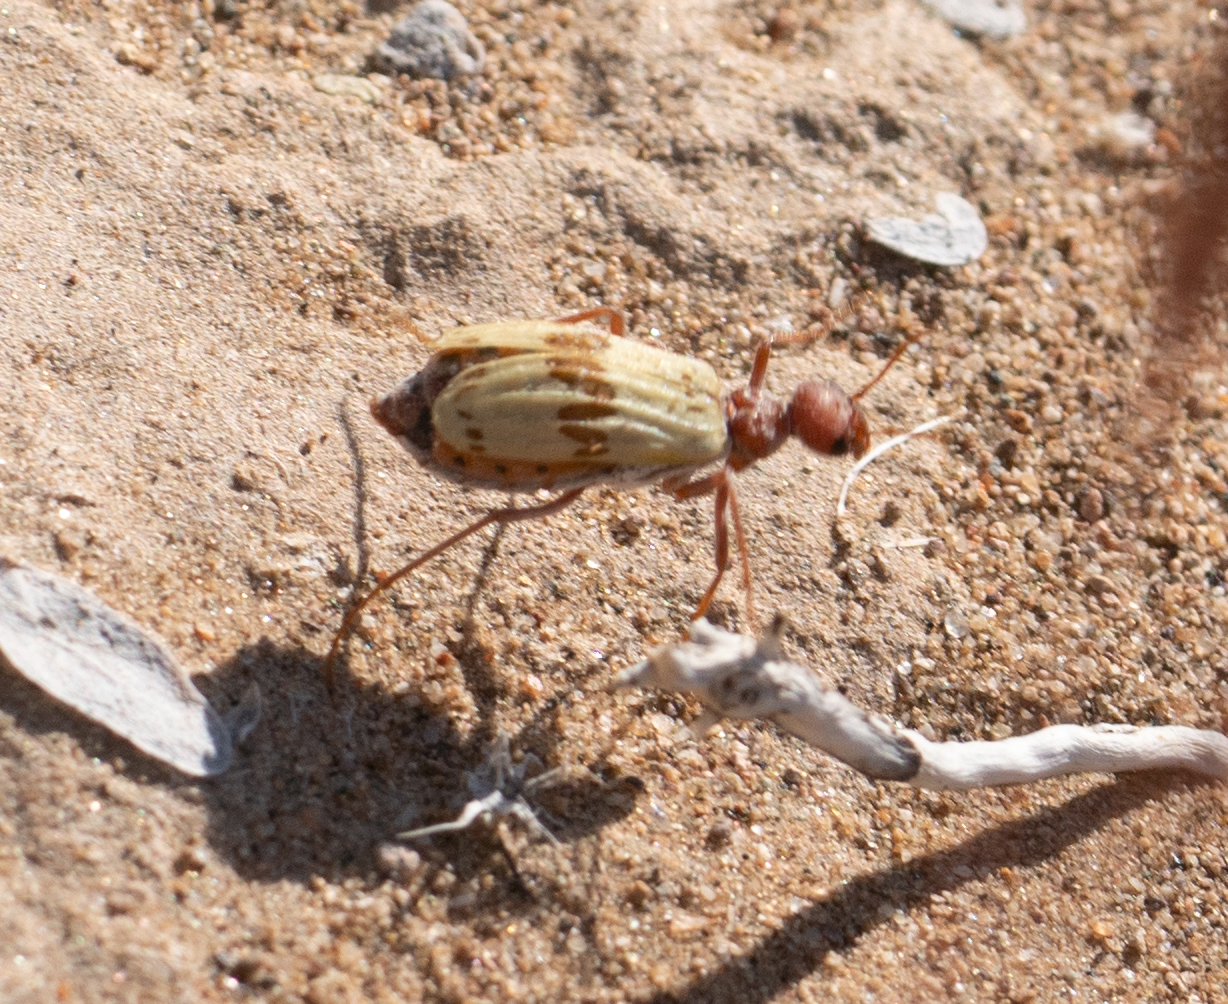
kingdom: Animalia
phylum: Arthropoda
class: Insecta
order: Coleoptera
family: Meloidae
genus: Pleuropasta
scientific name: Pleuropasta mirabilis
